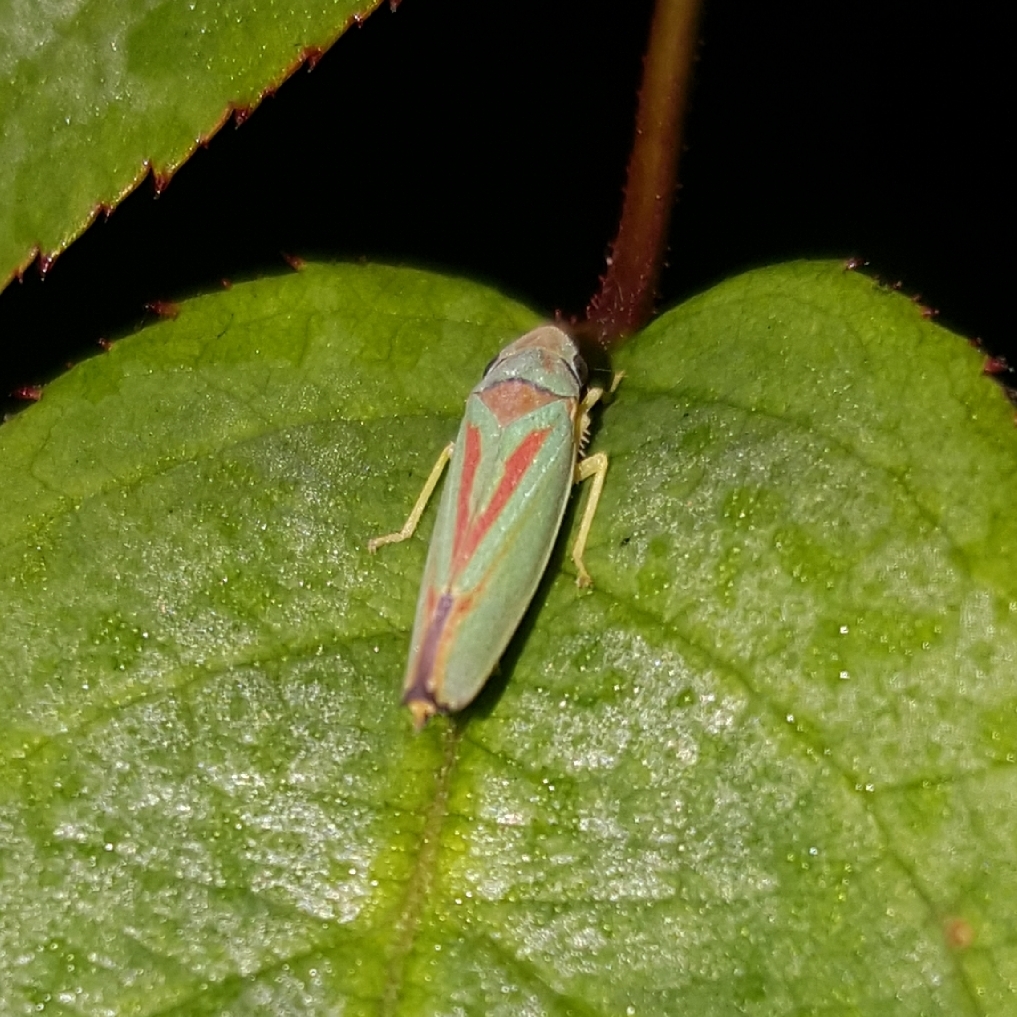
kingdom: Animalia
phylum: Arthropoda
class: Insecta
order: Hemiptera
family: Cicadellidae
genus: Graphocephala
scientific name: Graphocephala fennahi
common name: Rhododendron leafhopper
